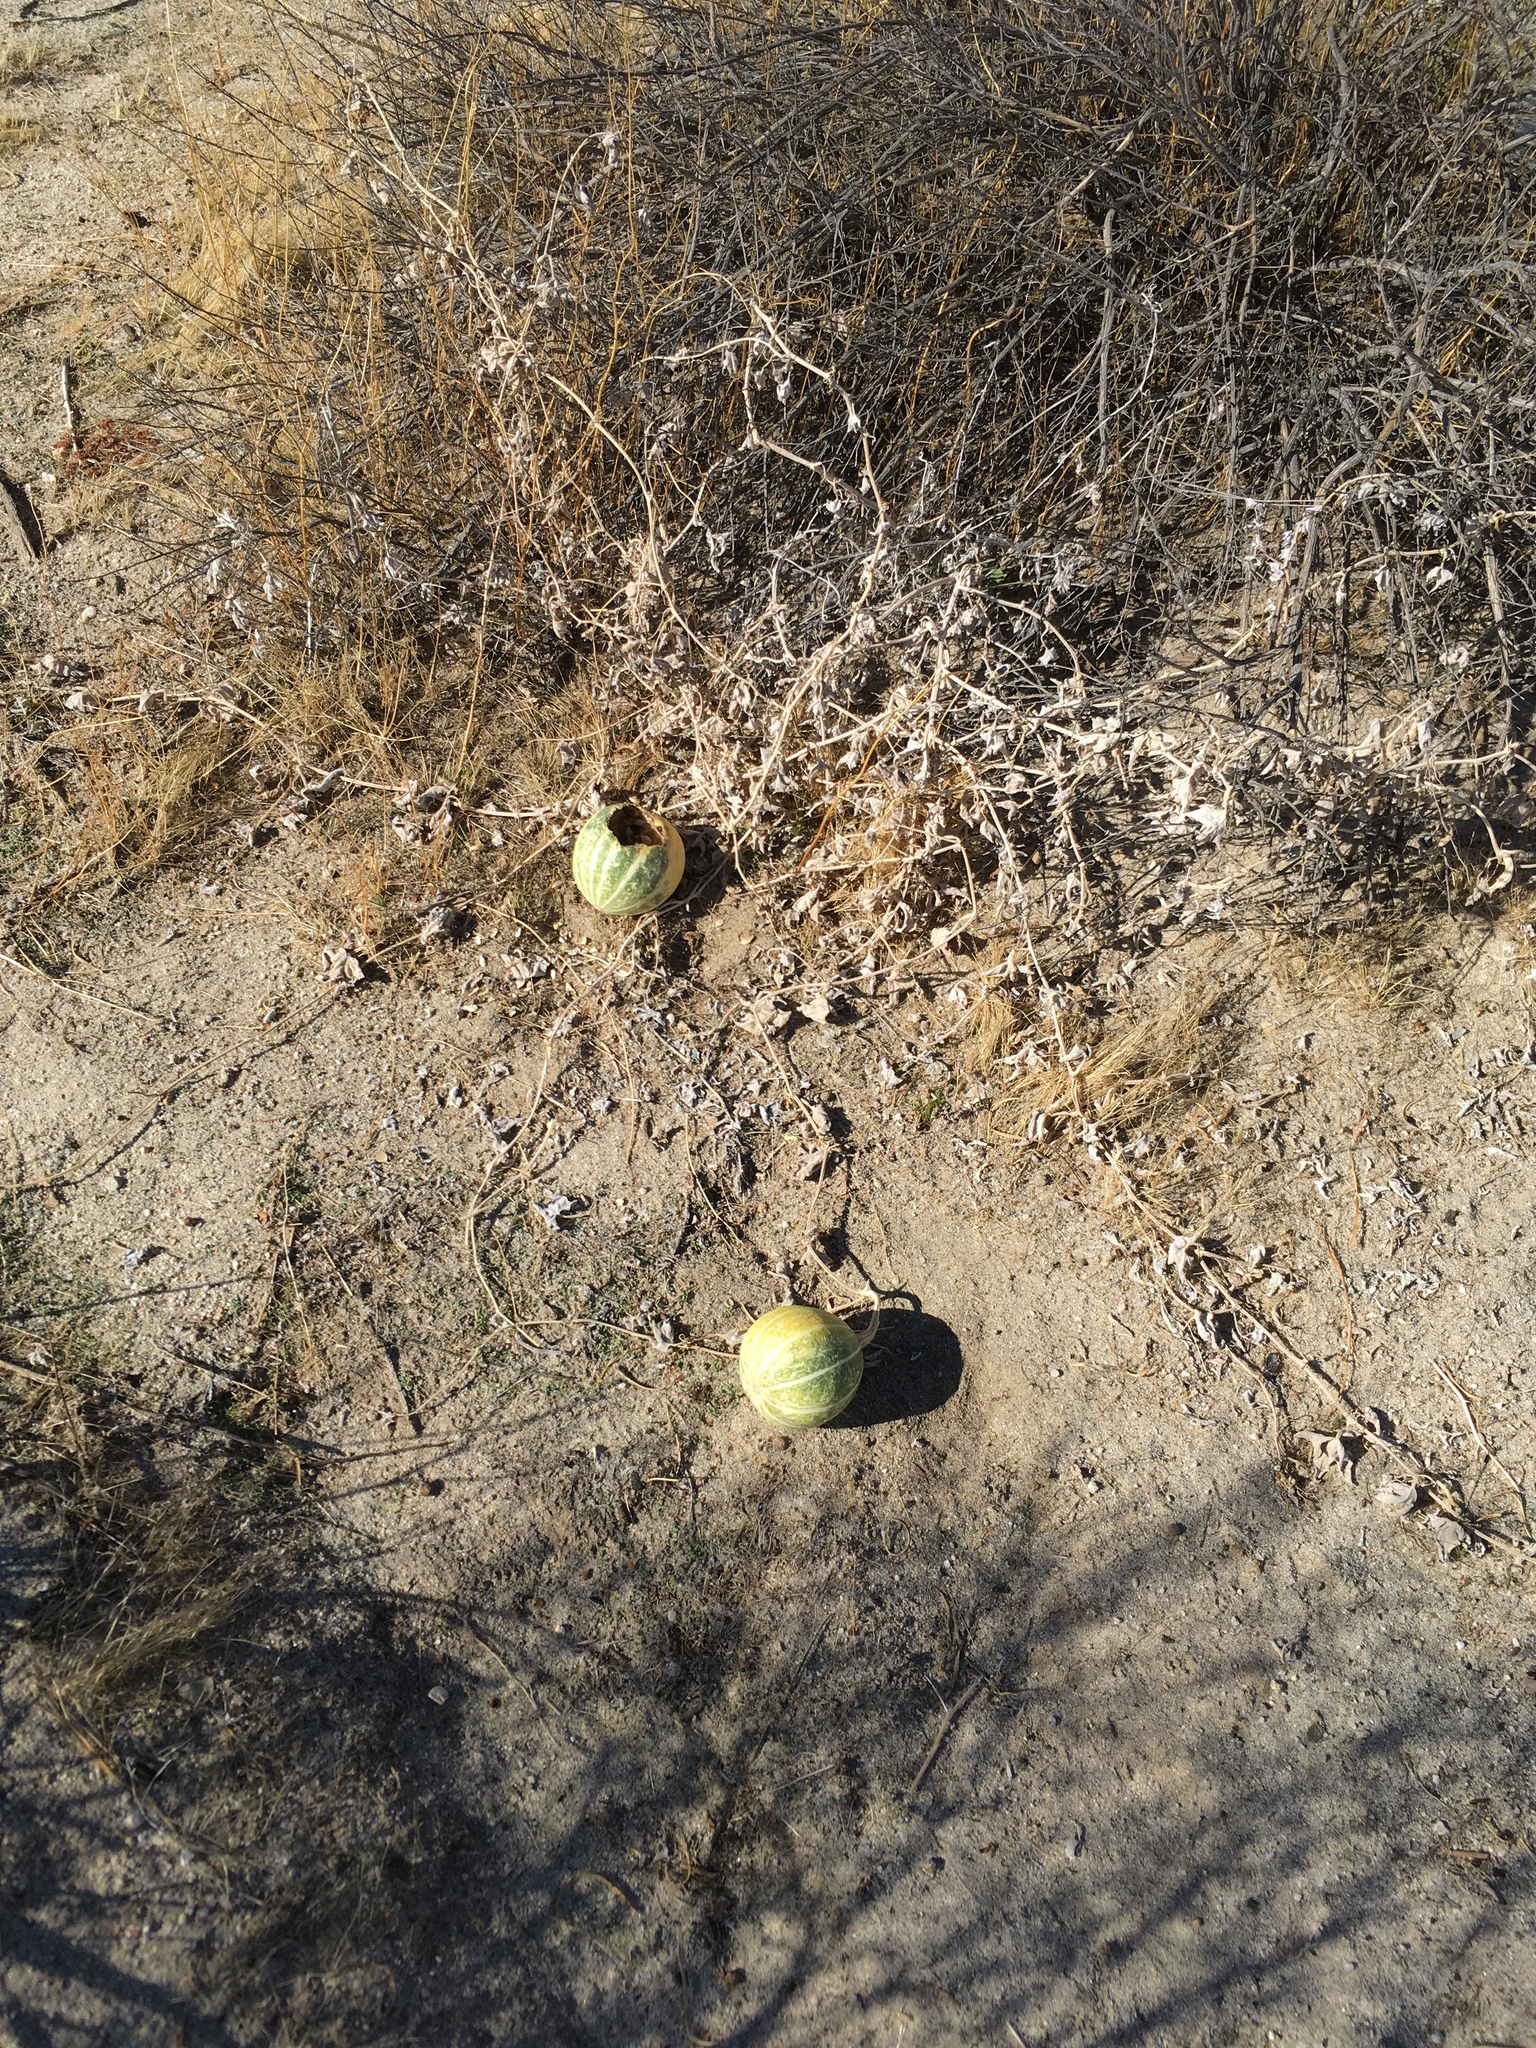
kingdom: Plantae
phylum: Tracheophyta
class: Magnoliopsida
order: Cucurbitales
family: Cucurbitaceae
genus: Cucurbita
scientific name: Cucurbita palmata
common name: Coyote-melon
